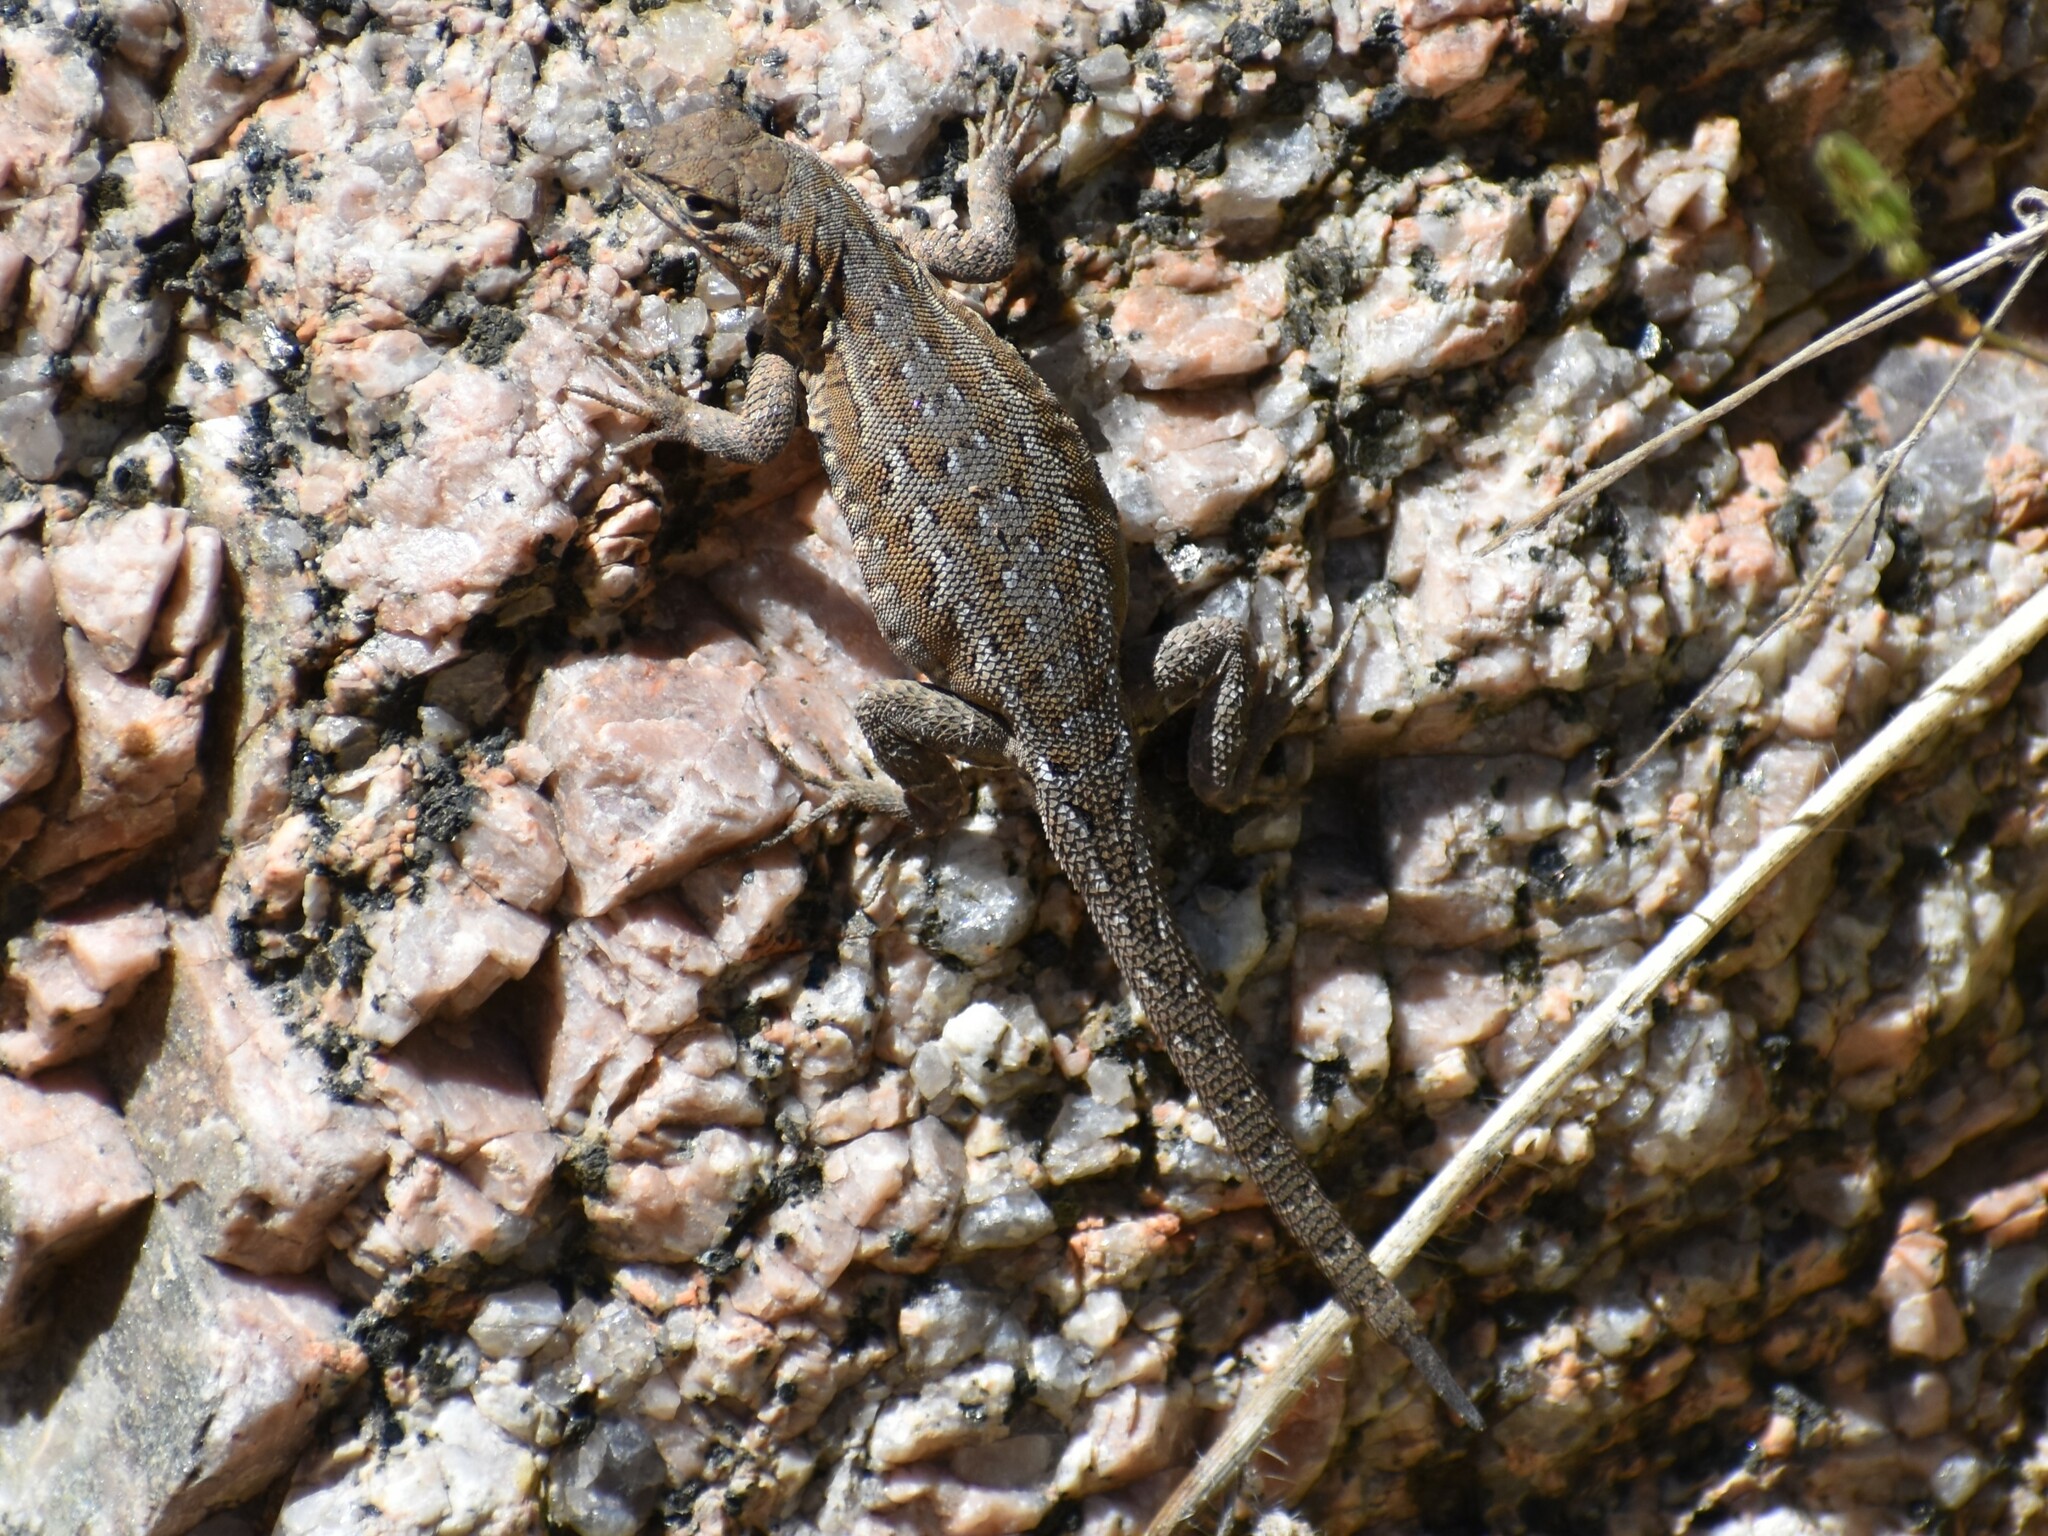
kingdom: Animalia
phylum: Chordata
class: Squamata
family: Phrynosomatidae
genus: Uta
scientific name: Uta stansburiana
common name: Side-blotched lizard
